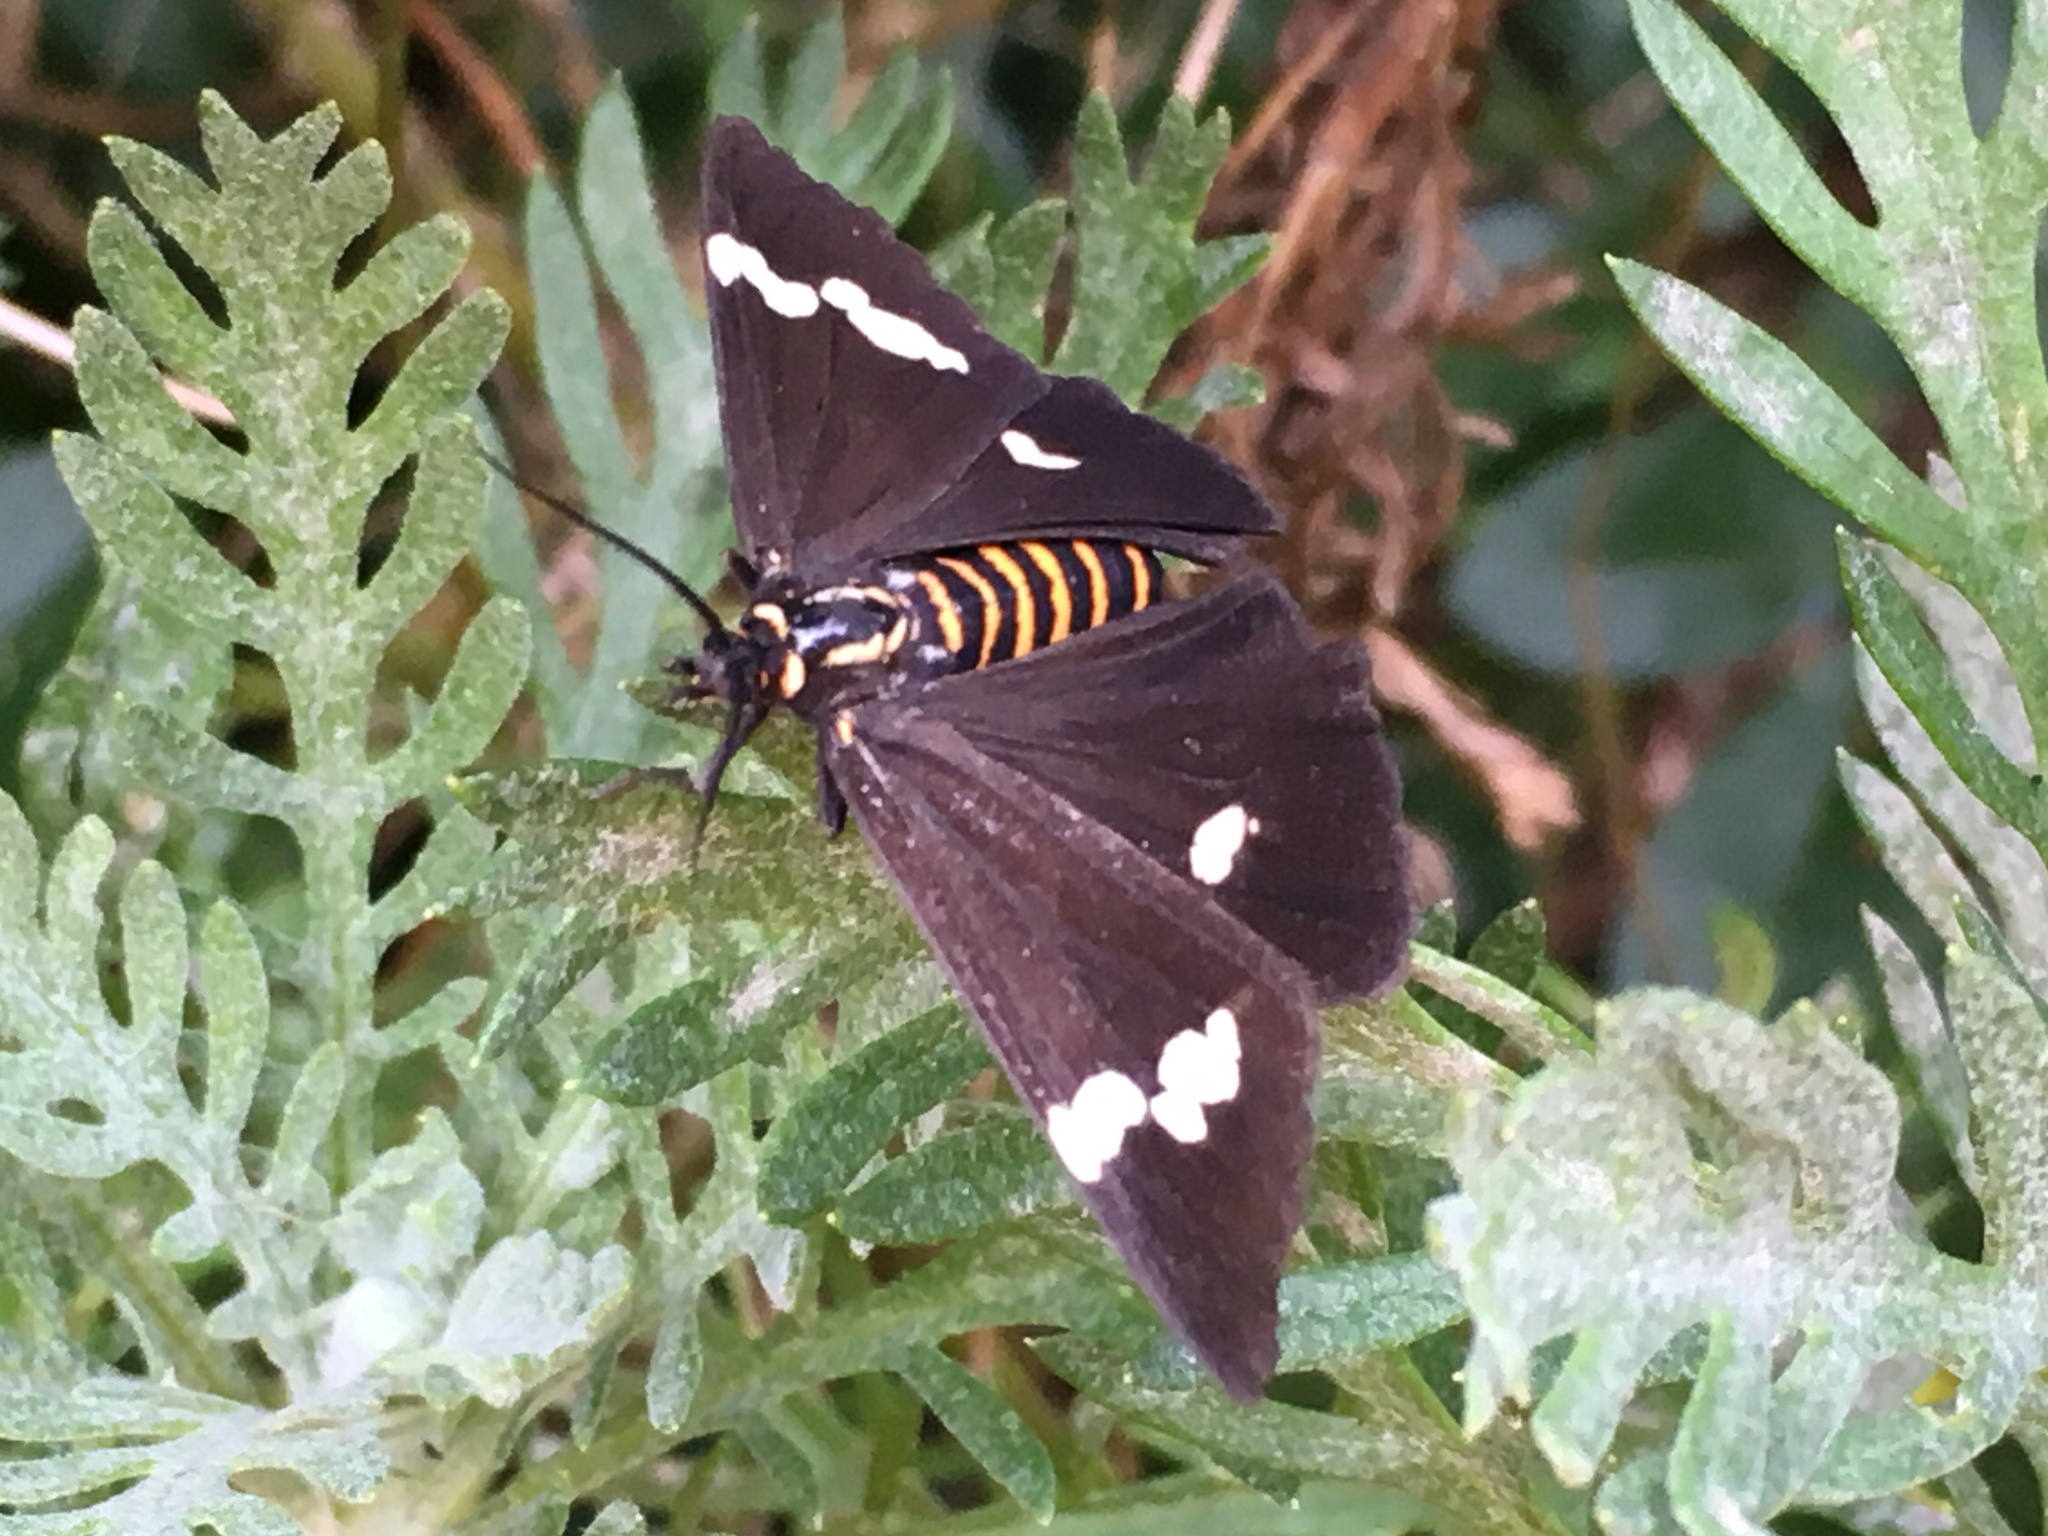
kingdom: Animalia
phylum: Arthropoda
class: Insecta
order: Lepidoptera
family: Erebidae
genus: Nyctemera
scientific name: Nyctemera annulatum
